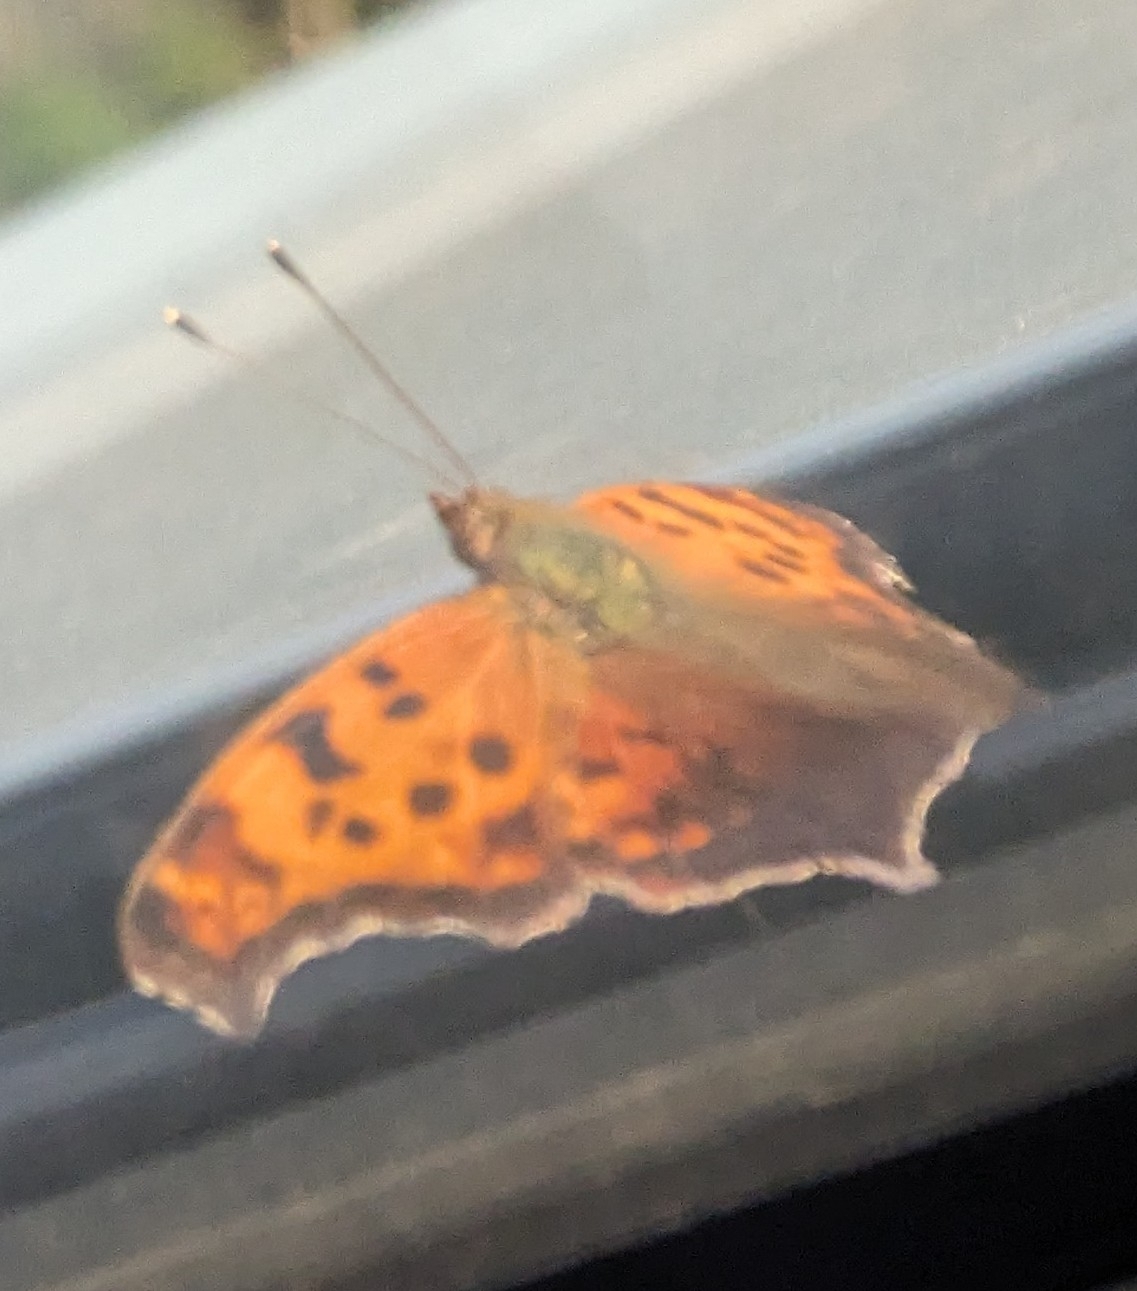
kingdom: Animalia
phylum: Arthropoda
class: Insecta
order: Lepidoptera
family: Nymphalidae
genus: Polygonia
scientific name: Polygonia interrogationis
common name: Question mark
